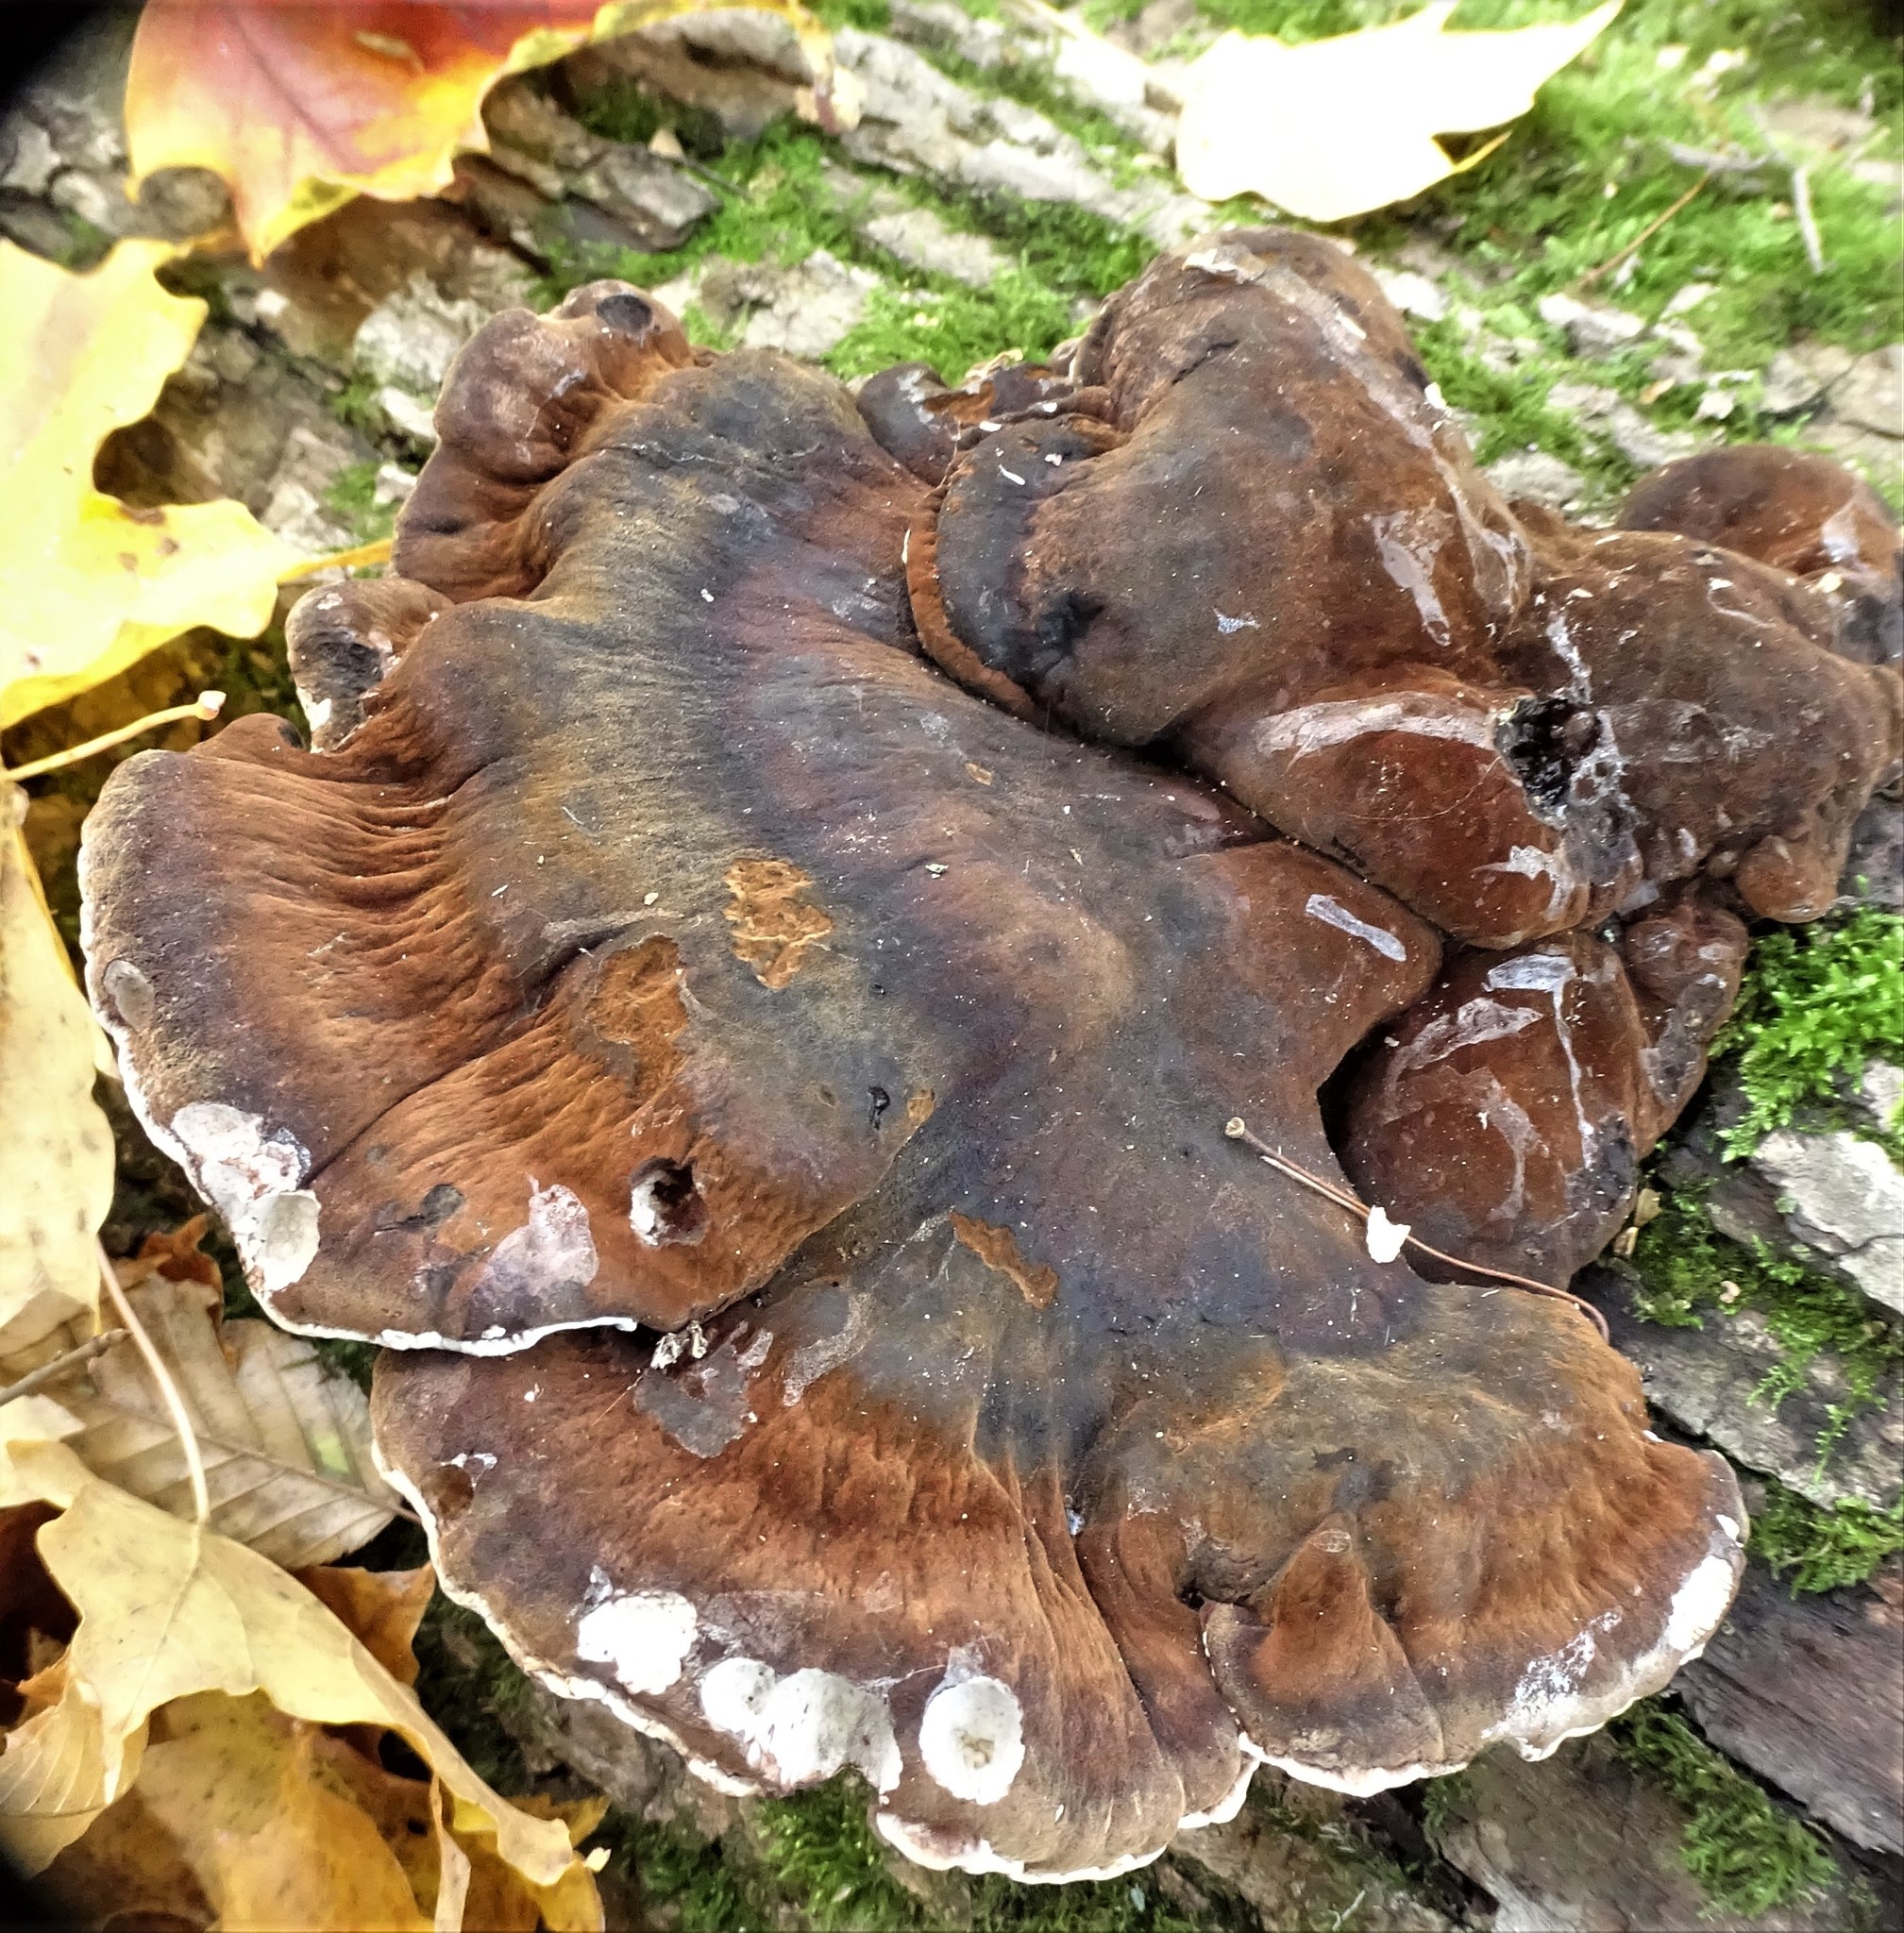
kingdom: Fungi
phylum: Basidiomycota
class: Agaricomycetes
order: Polyporales
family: Ischnodermataceae
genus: Ischnoderma
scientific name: Ischnoderma resinosum
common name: Resinous polypore
